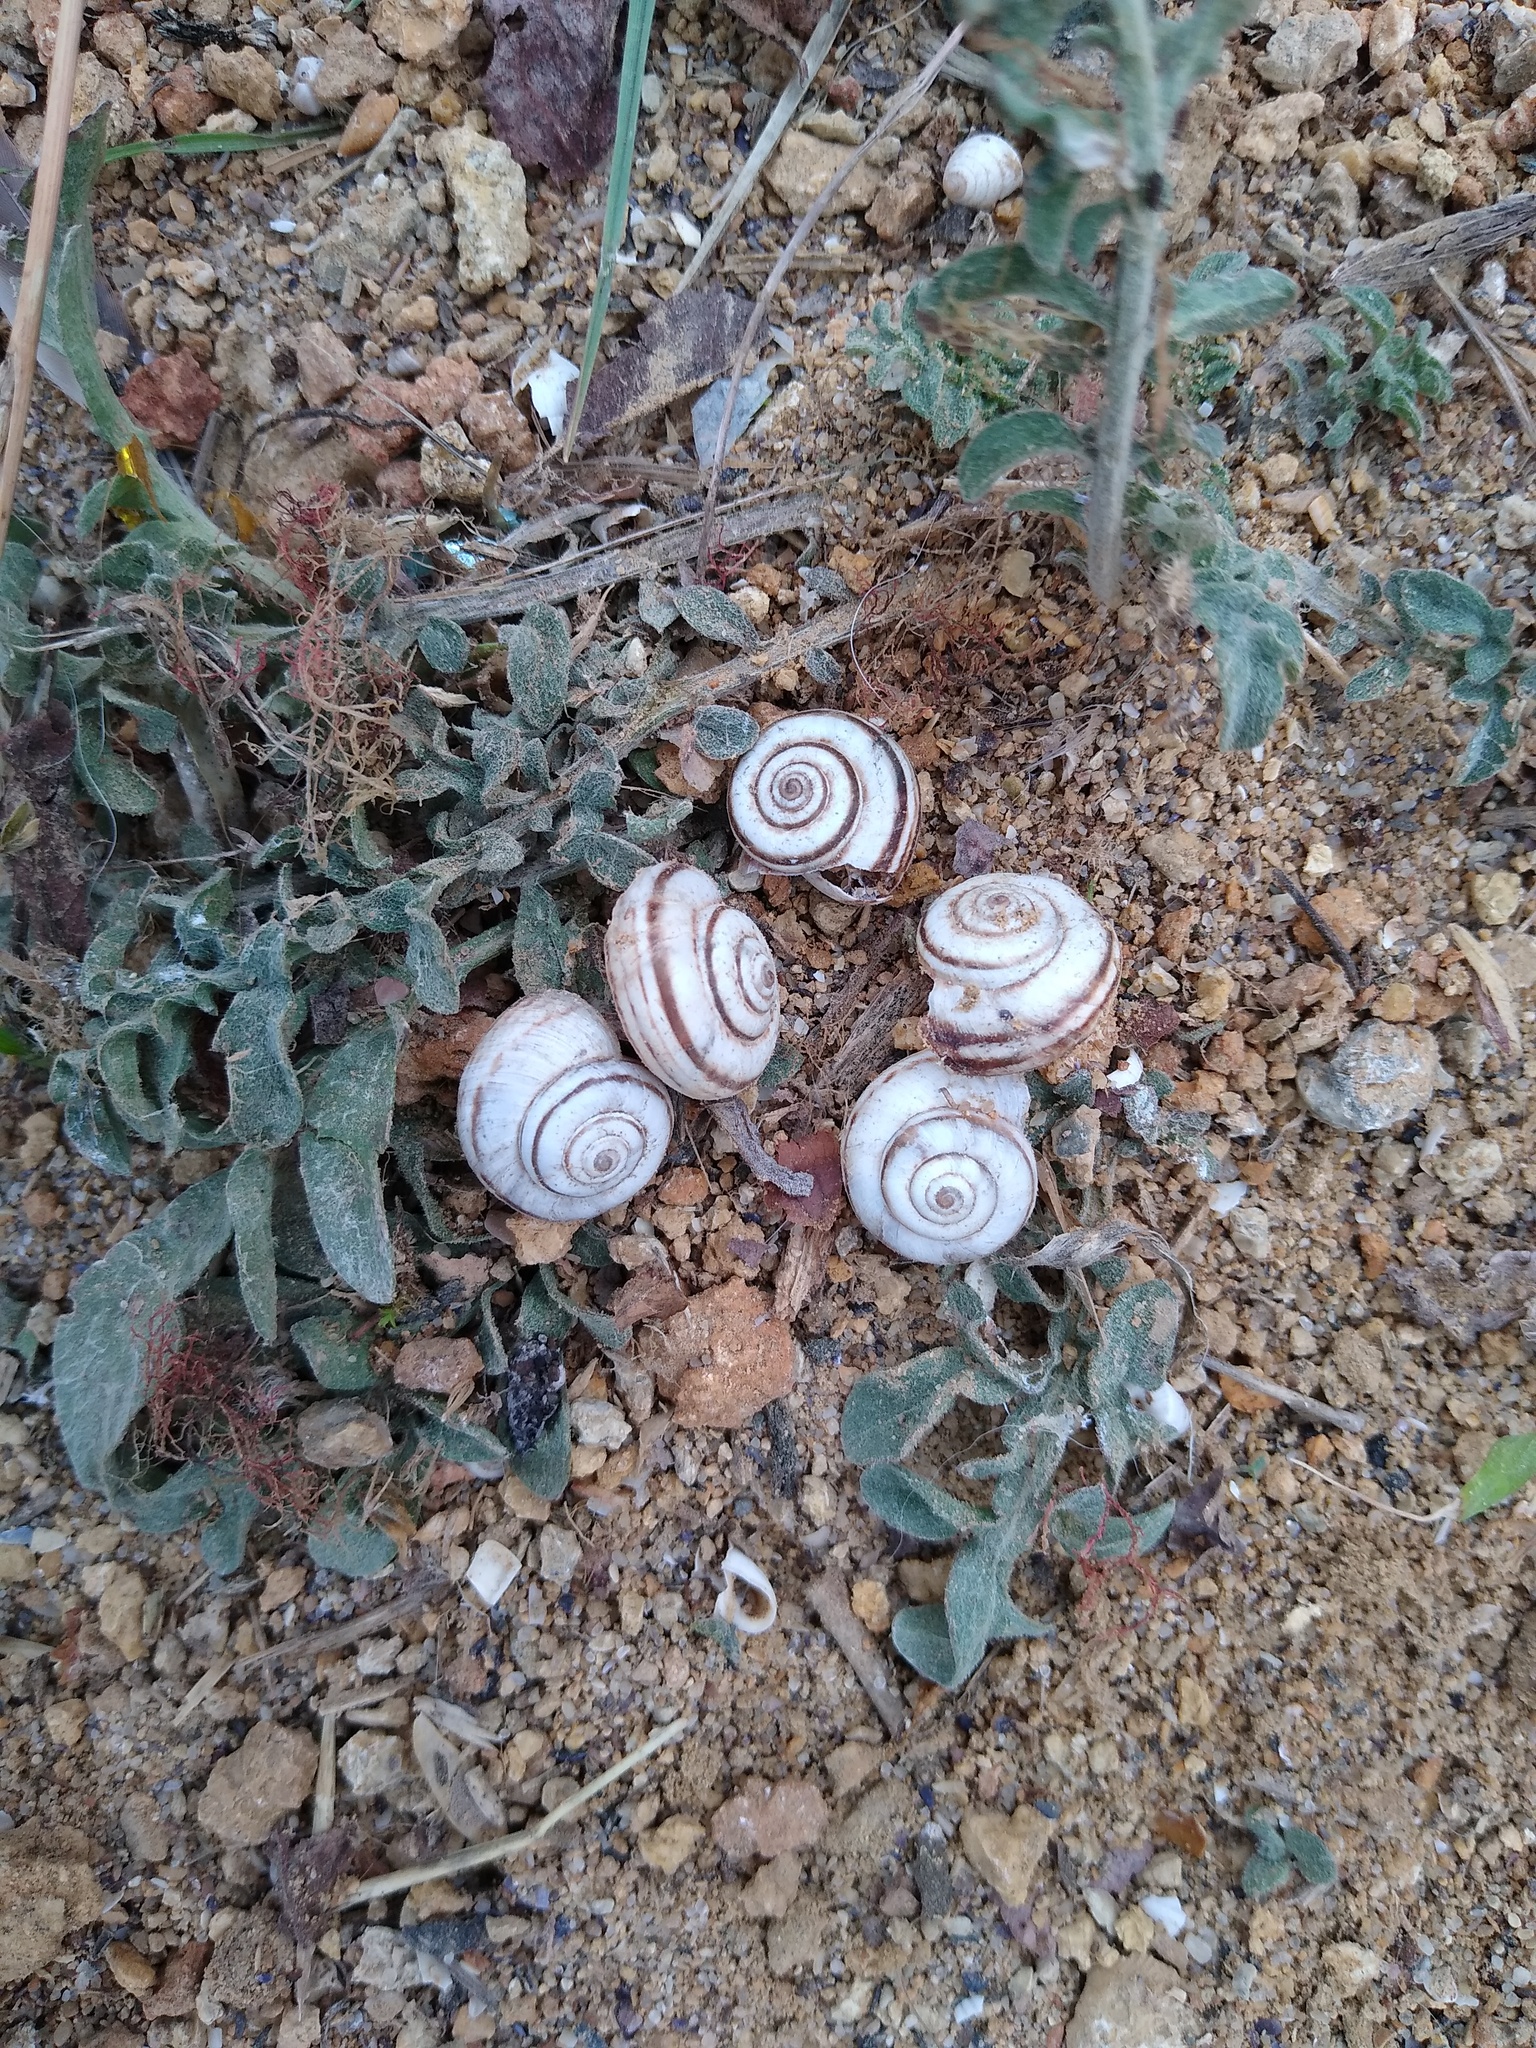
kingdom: Animalia
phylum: Mollusca
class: Gastropoda
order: Stylommatophora
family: Geomitridae
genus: Xeropicta
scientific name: Xeropicta derbentina
